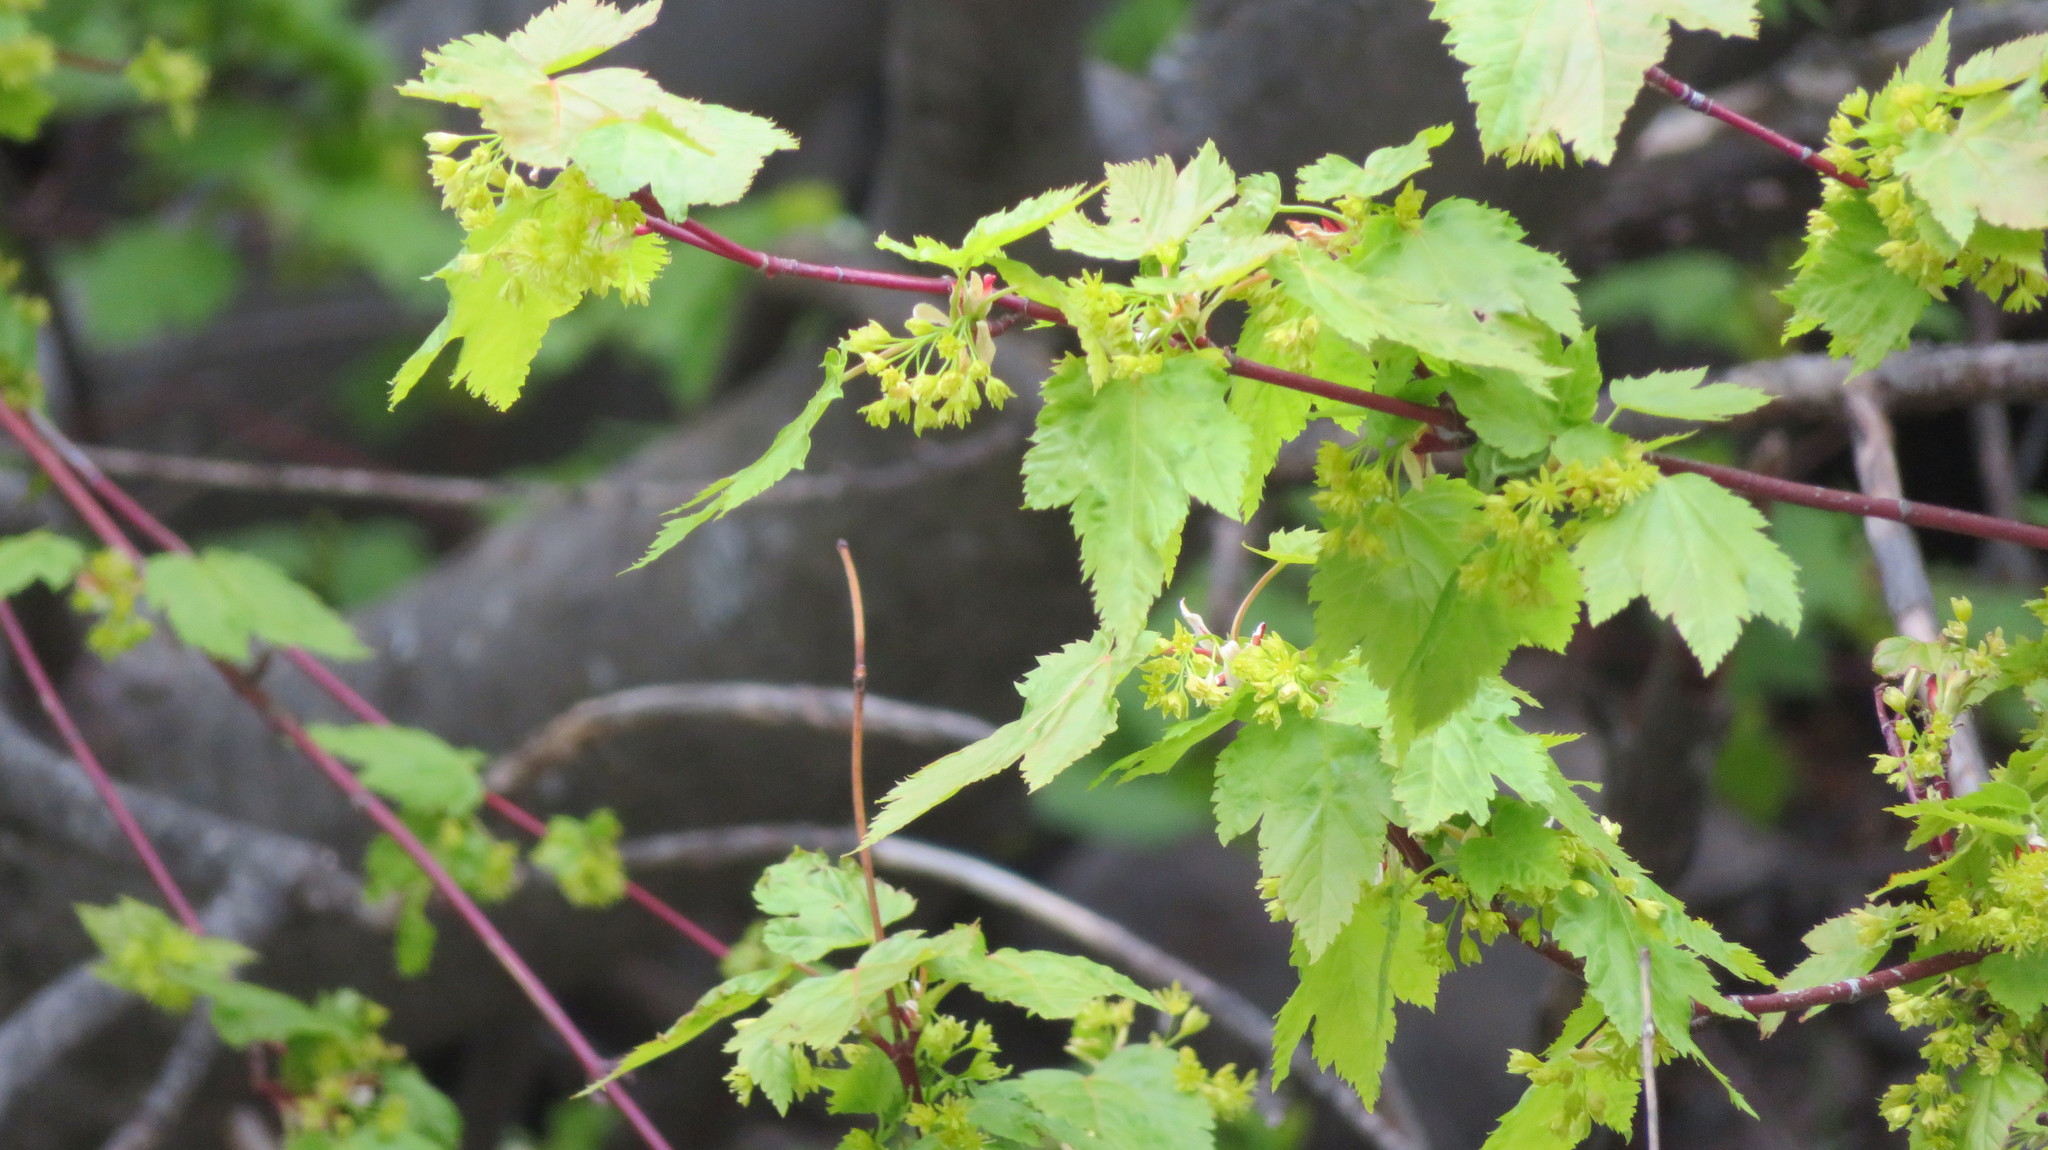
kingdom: Plantae
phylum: Tracheophyta
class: Magnoliopsida
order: Sapindales
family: Sapindaceae
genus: Acer
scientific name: Acer glabrum
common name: Rocky mountain maple
